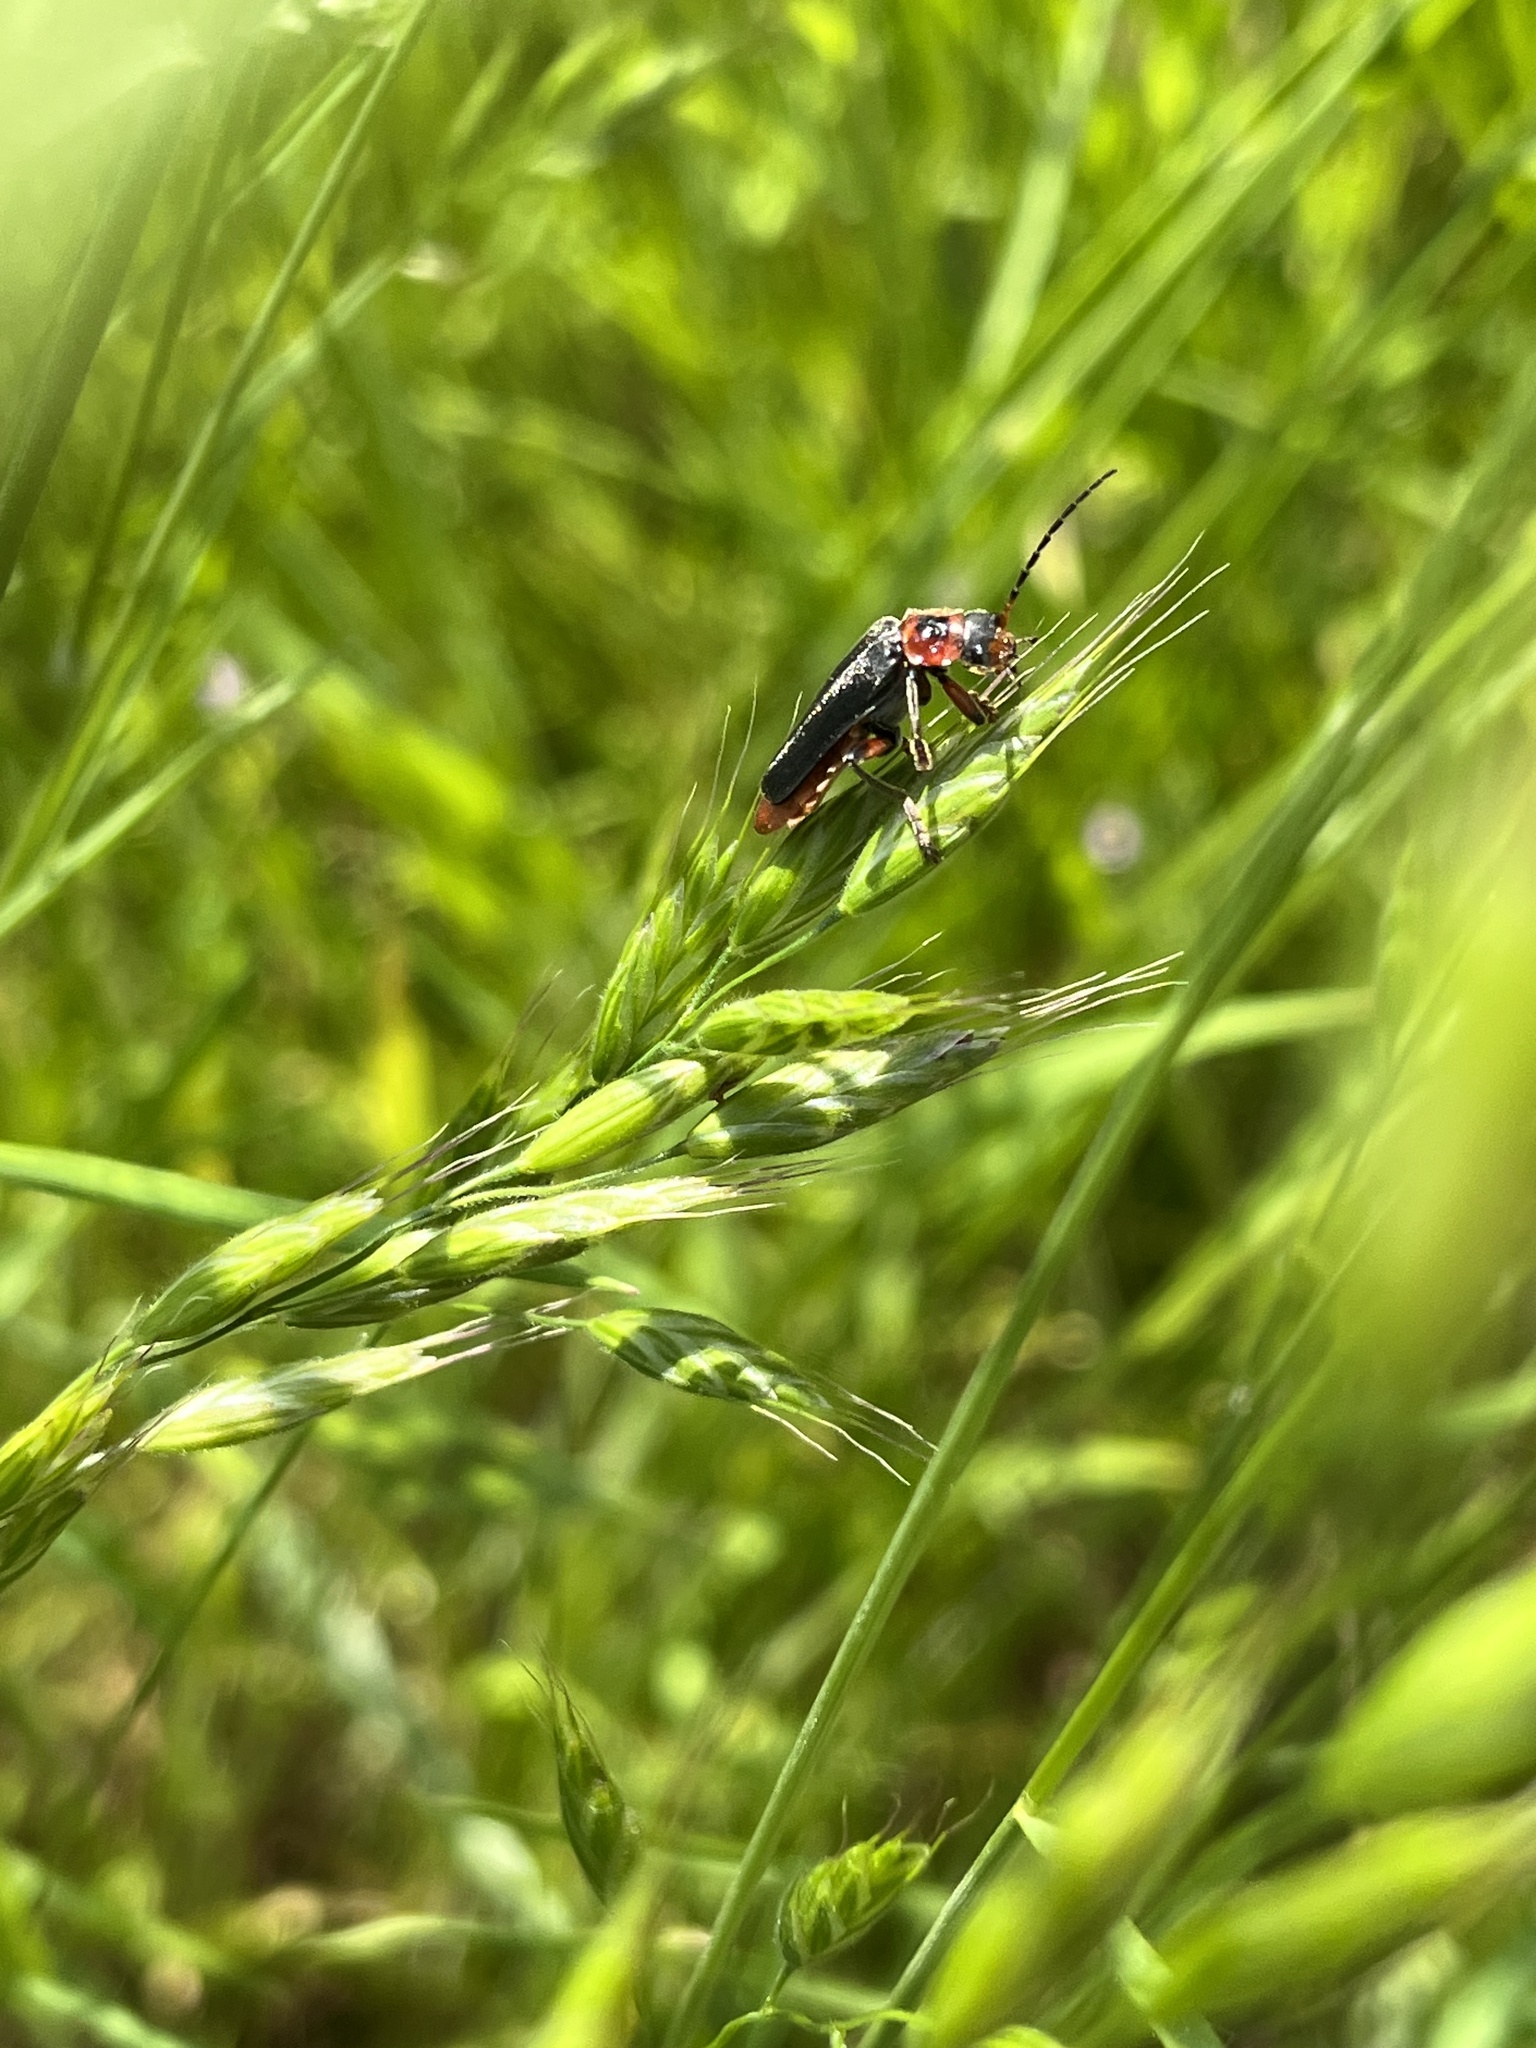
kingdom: Animalia
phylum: Arthropoda
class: Insecta
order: Coleoptera
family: Cantharidae
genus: Cantharis
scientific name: Cantharis rustica
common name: Soldier beetle
